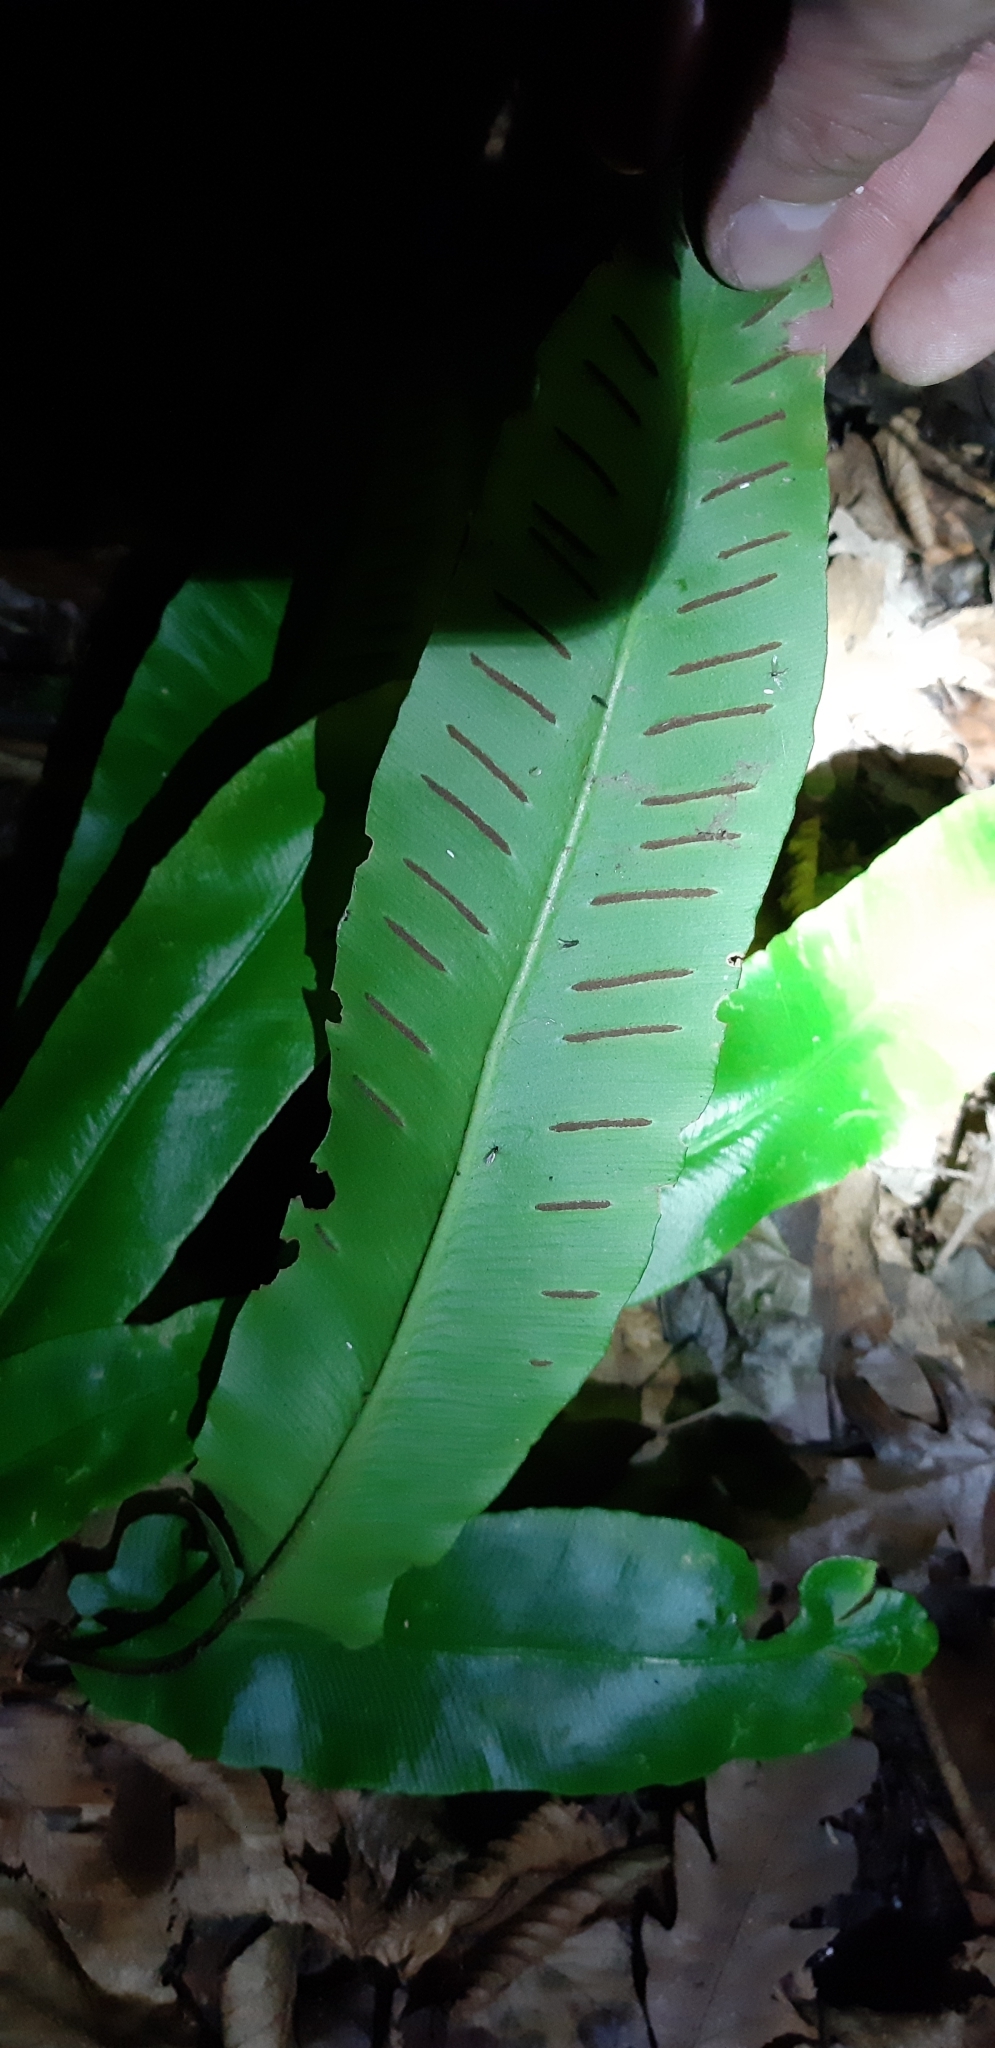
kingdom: Plantae
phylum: Tracheophyta
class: Polypodiopsida
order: Polypodiales
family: Aspleniaceae
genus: Asplenium
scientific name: Asplenium scolopendrium
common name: Hart's-tongue fern
